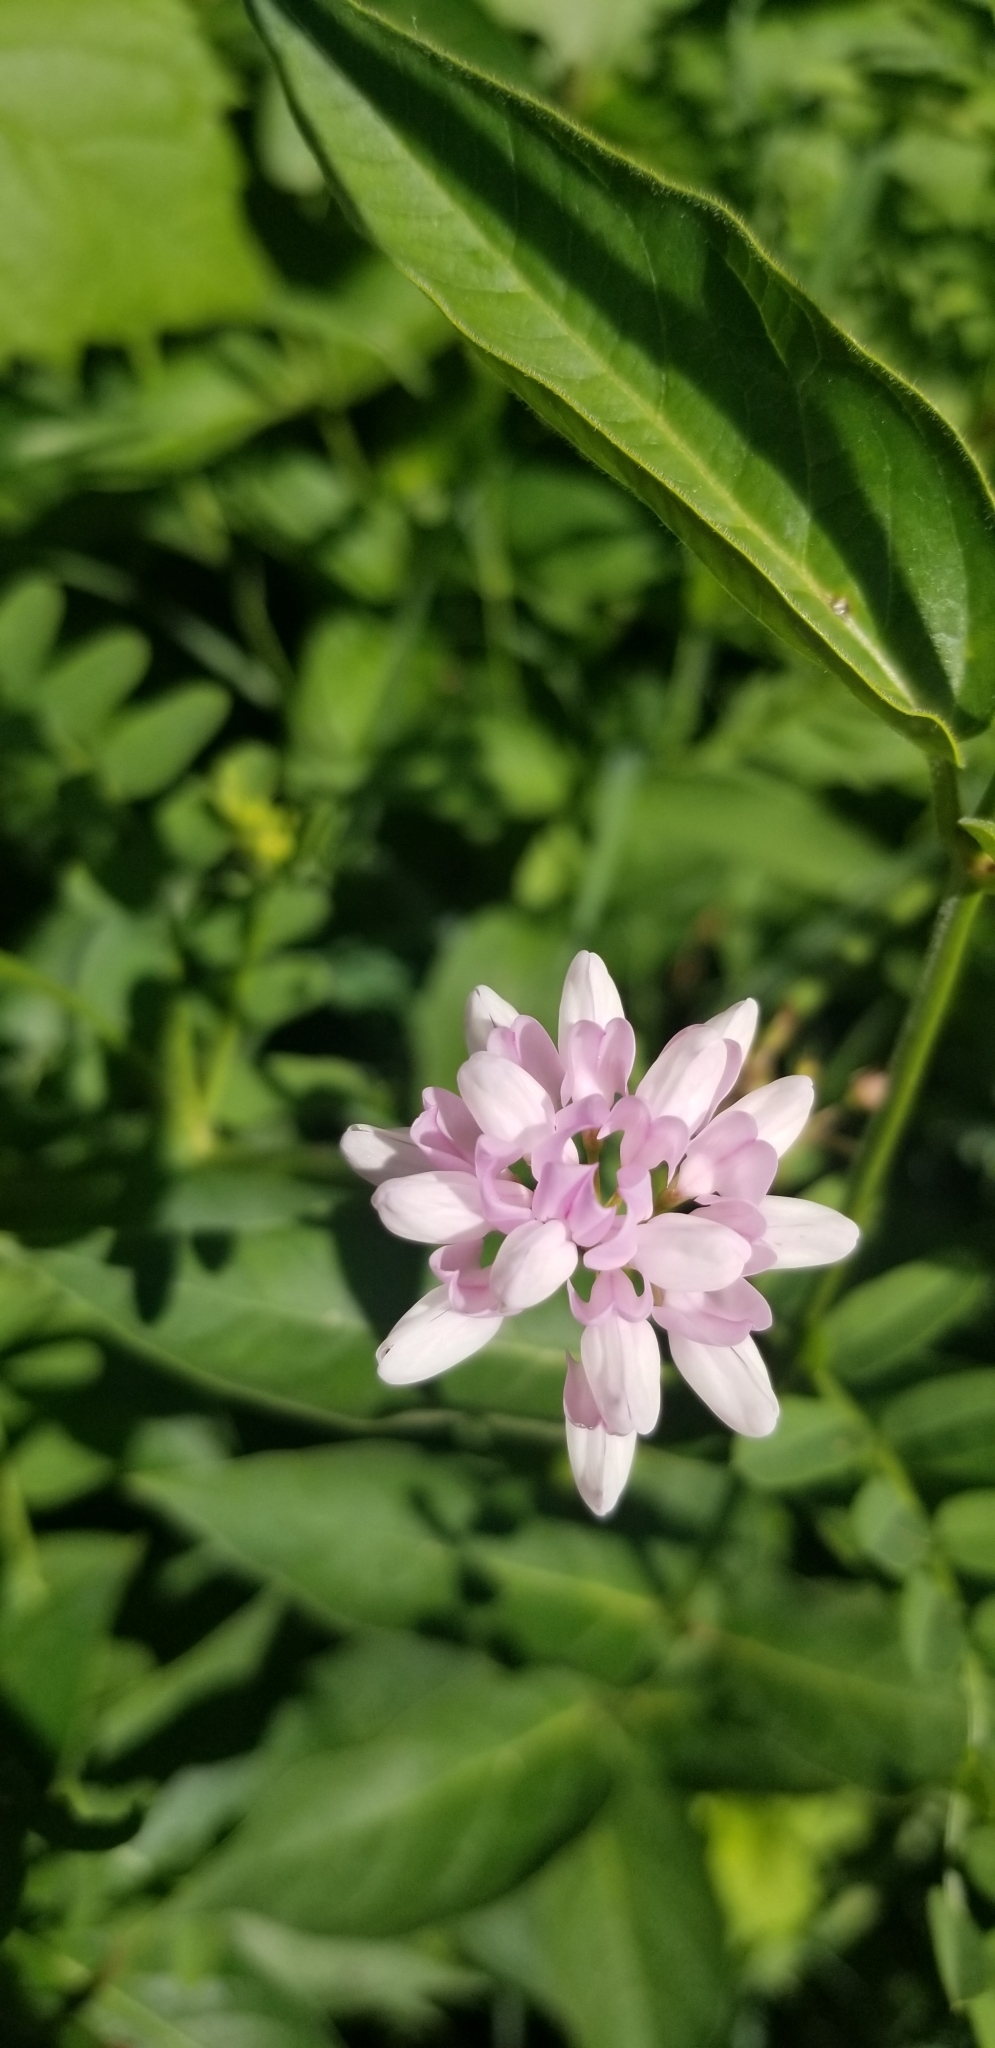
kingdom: Plantae
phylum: Tracheophyta
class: Magnoliopsida
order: Fabales
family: Fabaceae
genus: Coronilla
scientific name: Coronilla varia
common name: Crownvetch
